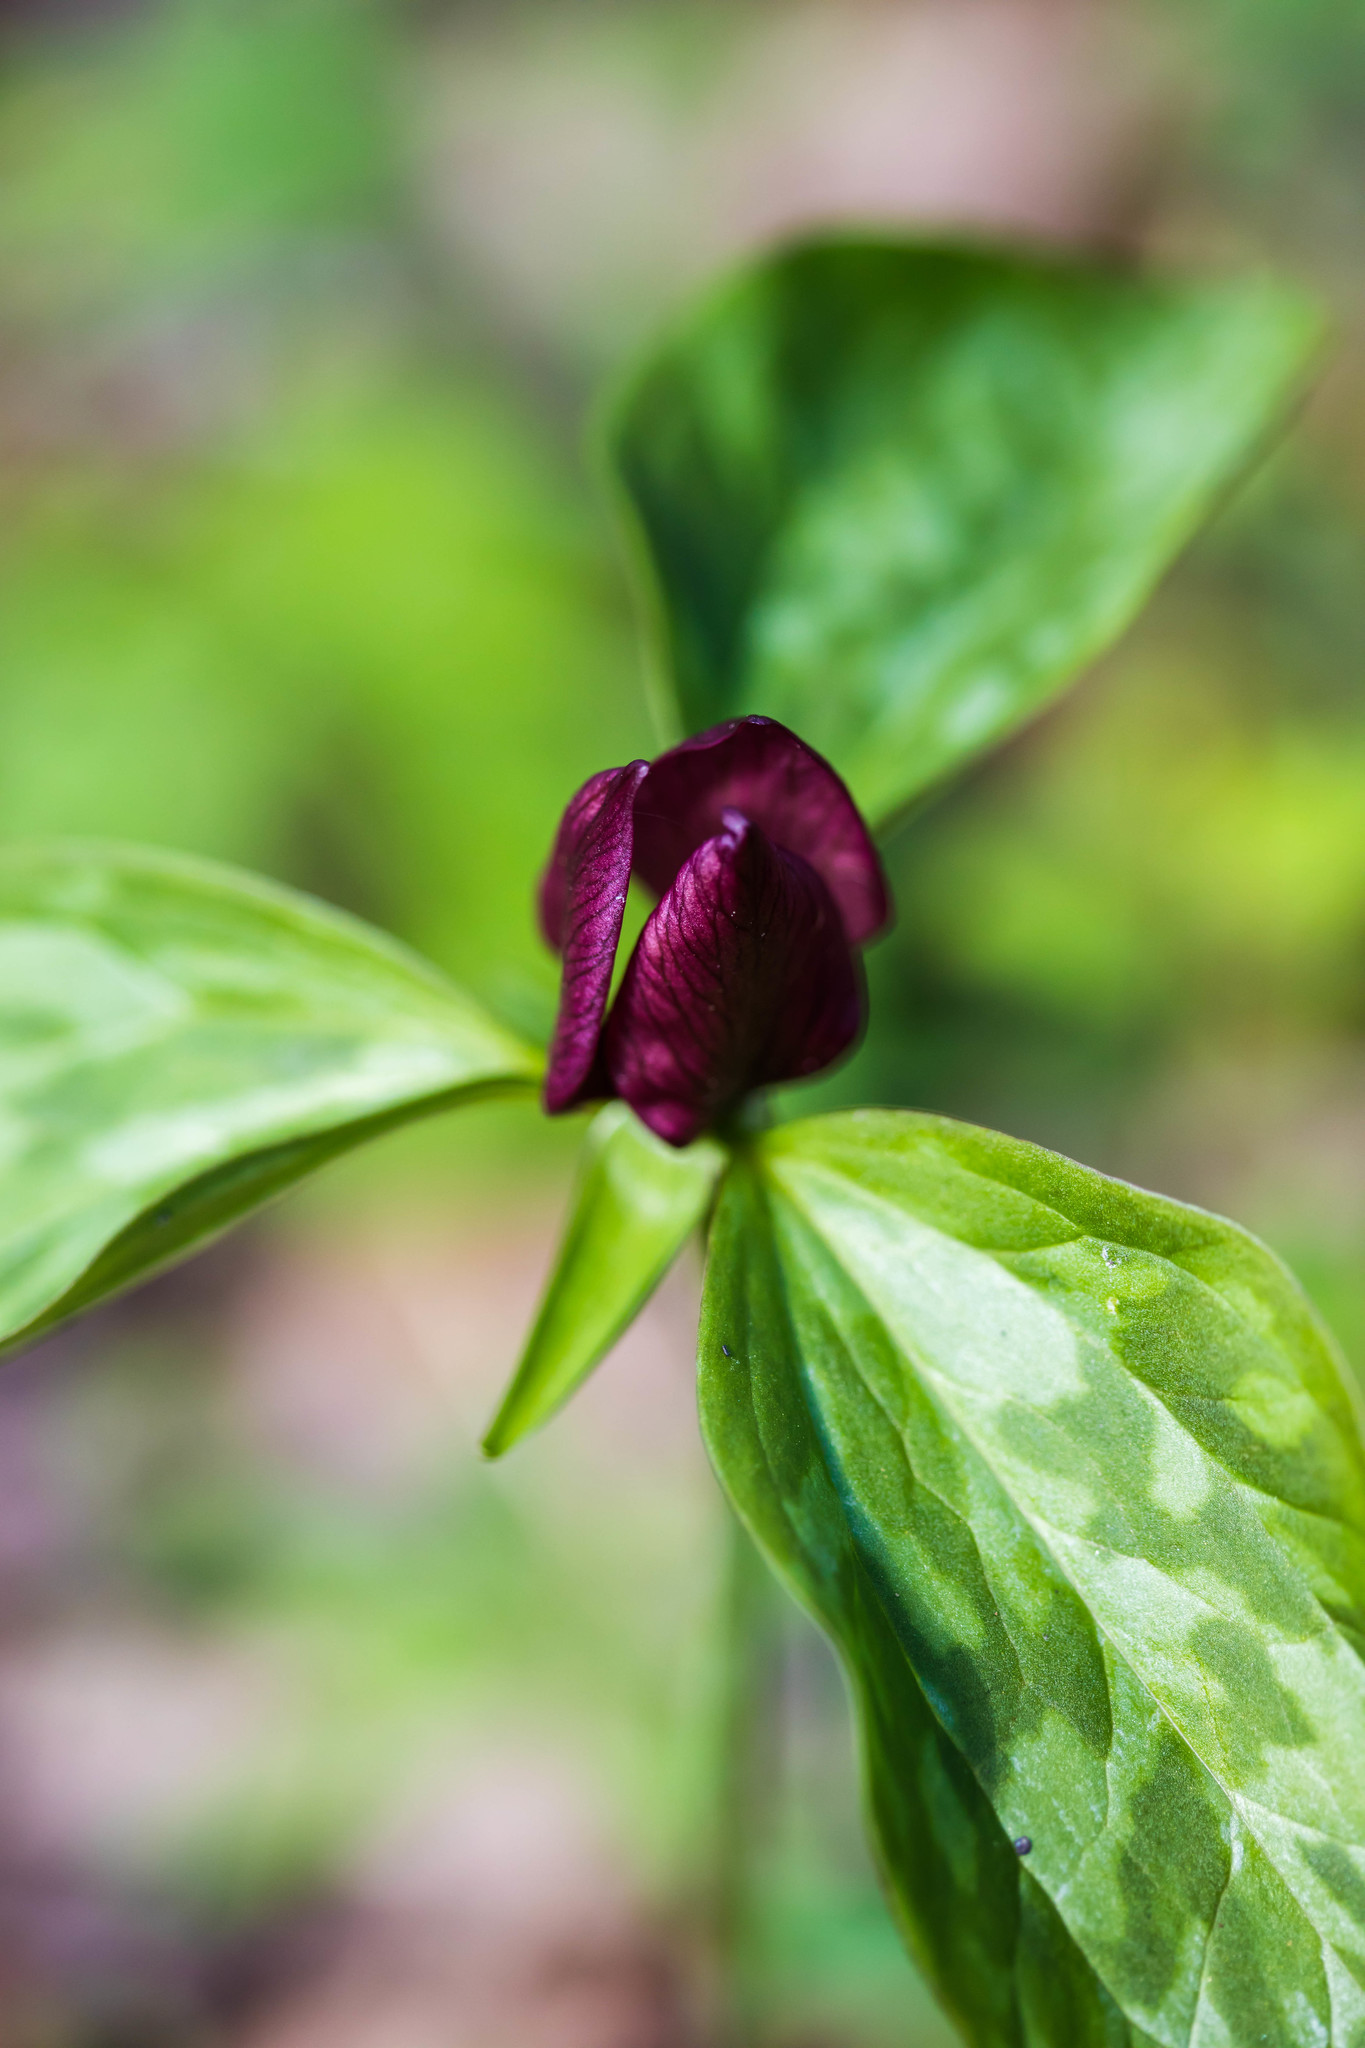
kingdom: Plantae
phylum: Tracheophyta
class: Liliopsida
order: Liliales
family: Melanthiaceae
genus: Trillium
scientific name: Trillium recurvatum
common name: Bloody butcher
